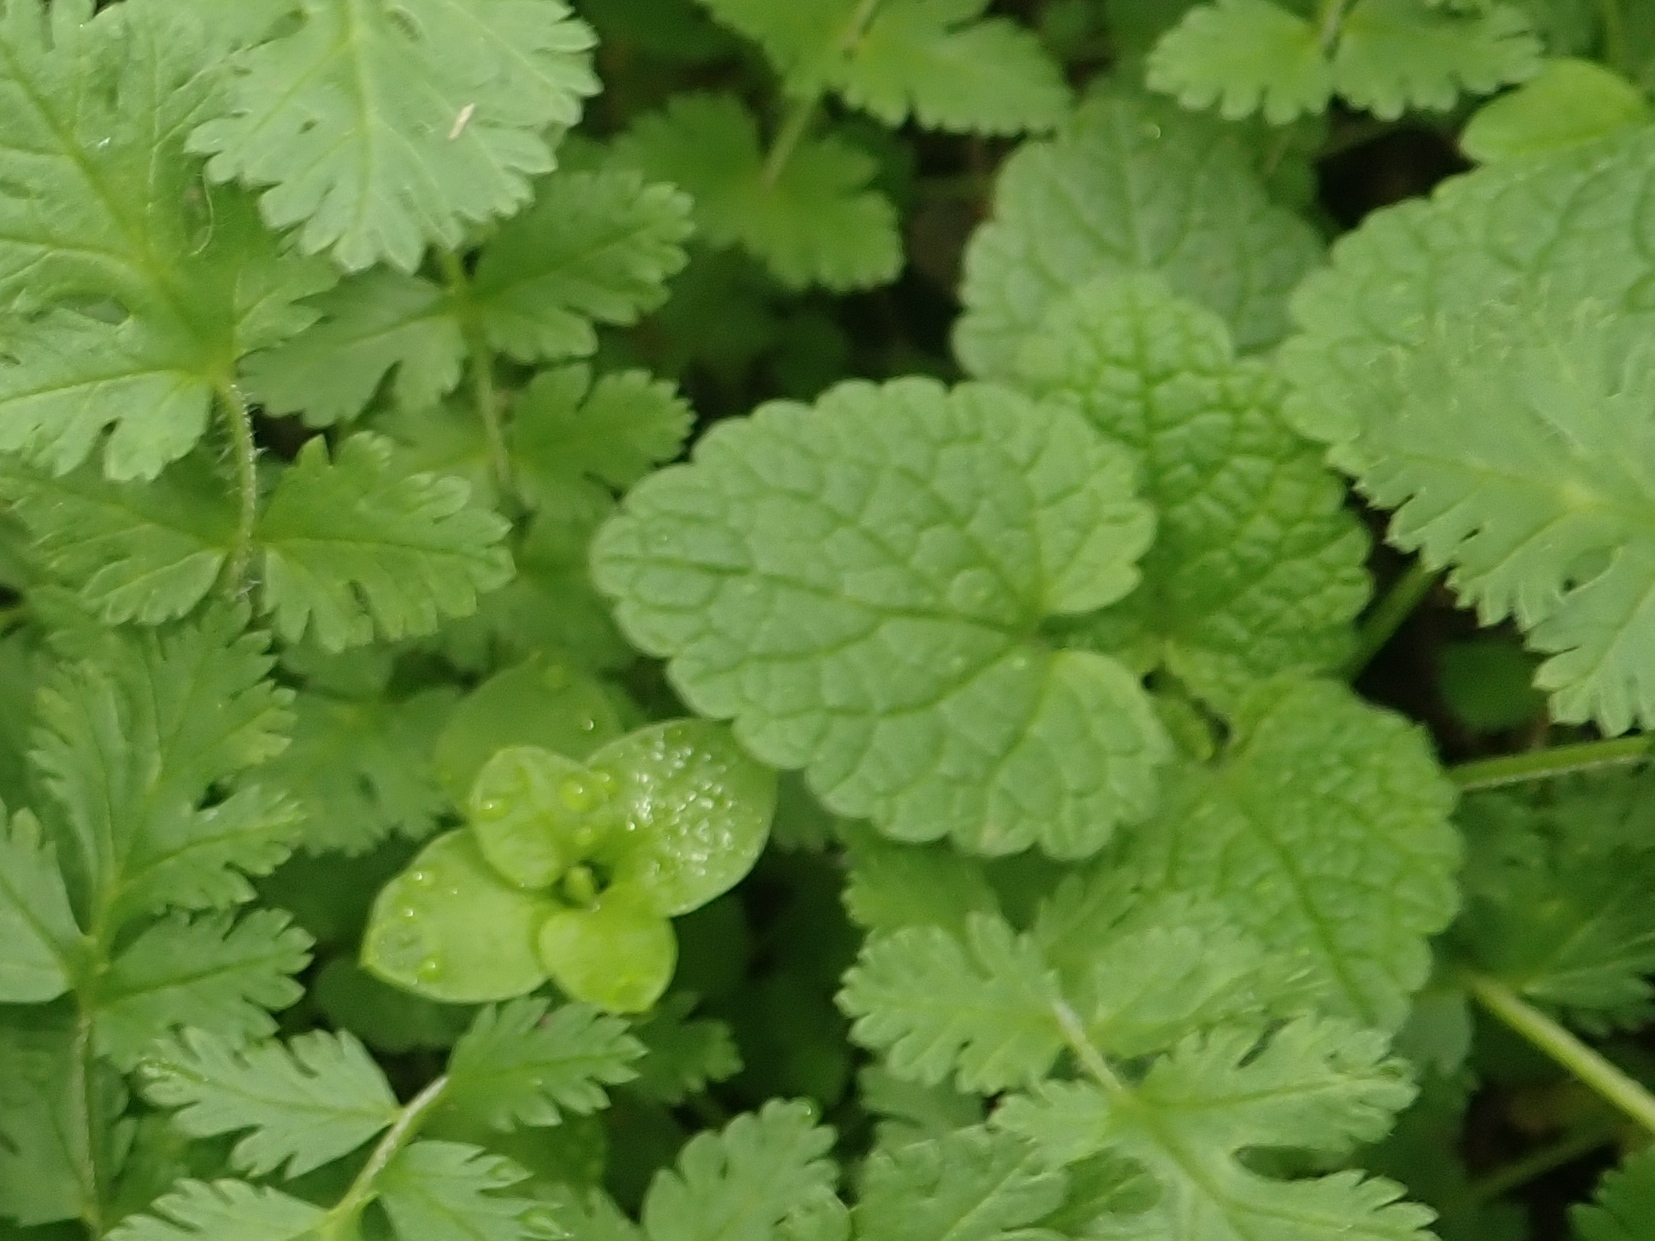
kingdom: Plantae
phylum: Tracheophyta
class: Magnoliopsida
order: Lamiales
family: Lamiaceae
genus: Lamium
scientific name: Lamium purpureum
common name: Red dead-nettle
